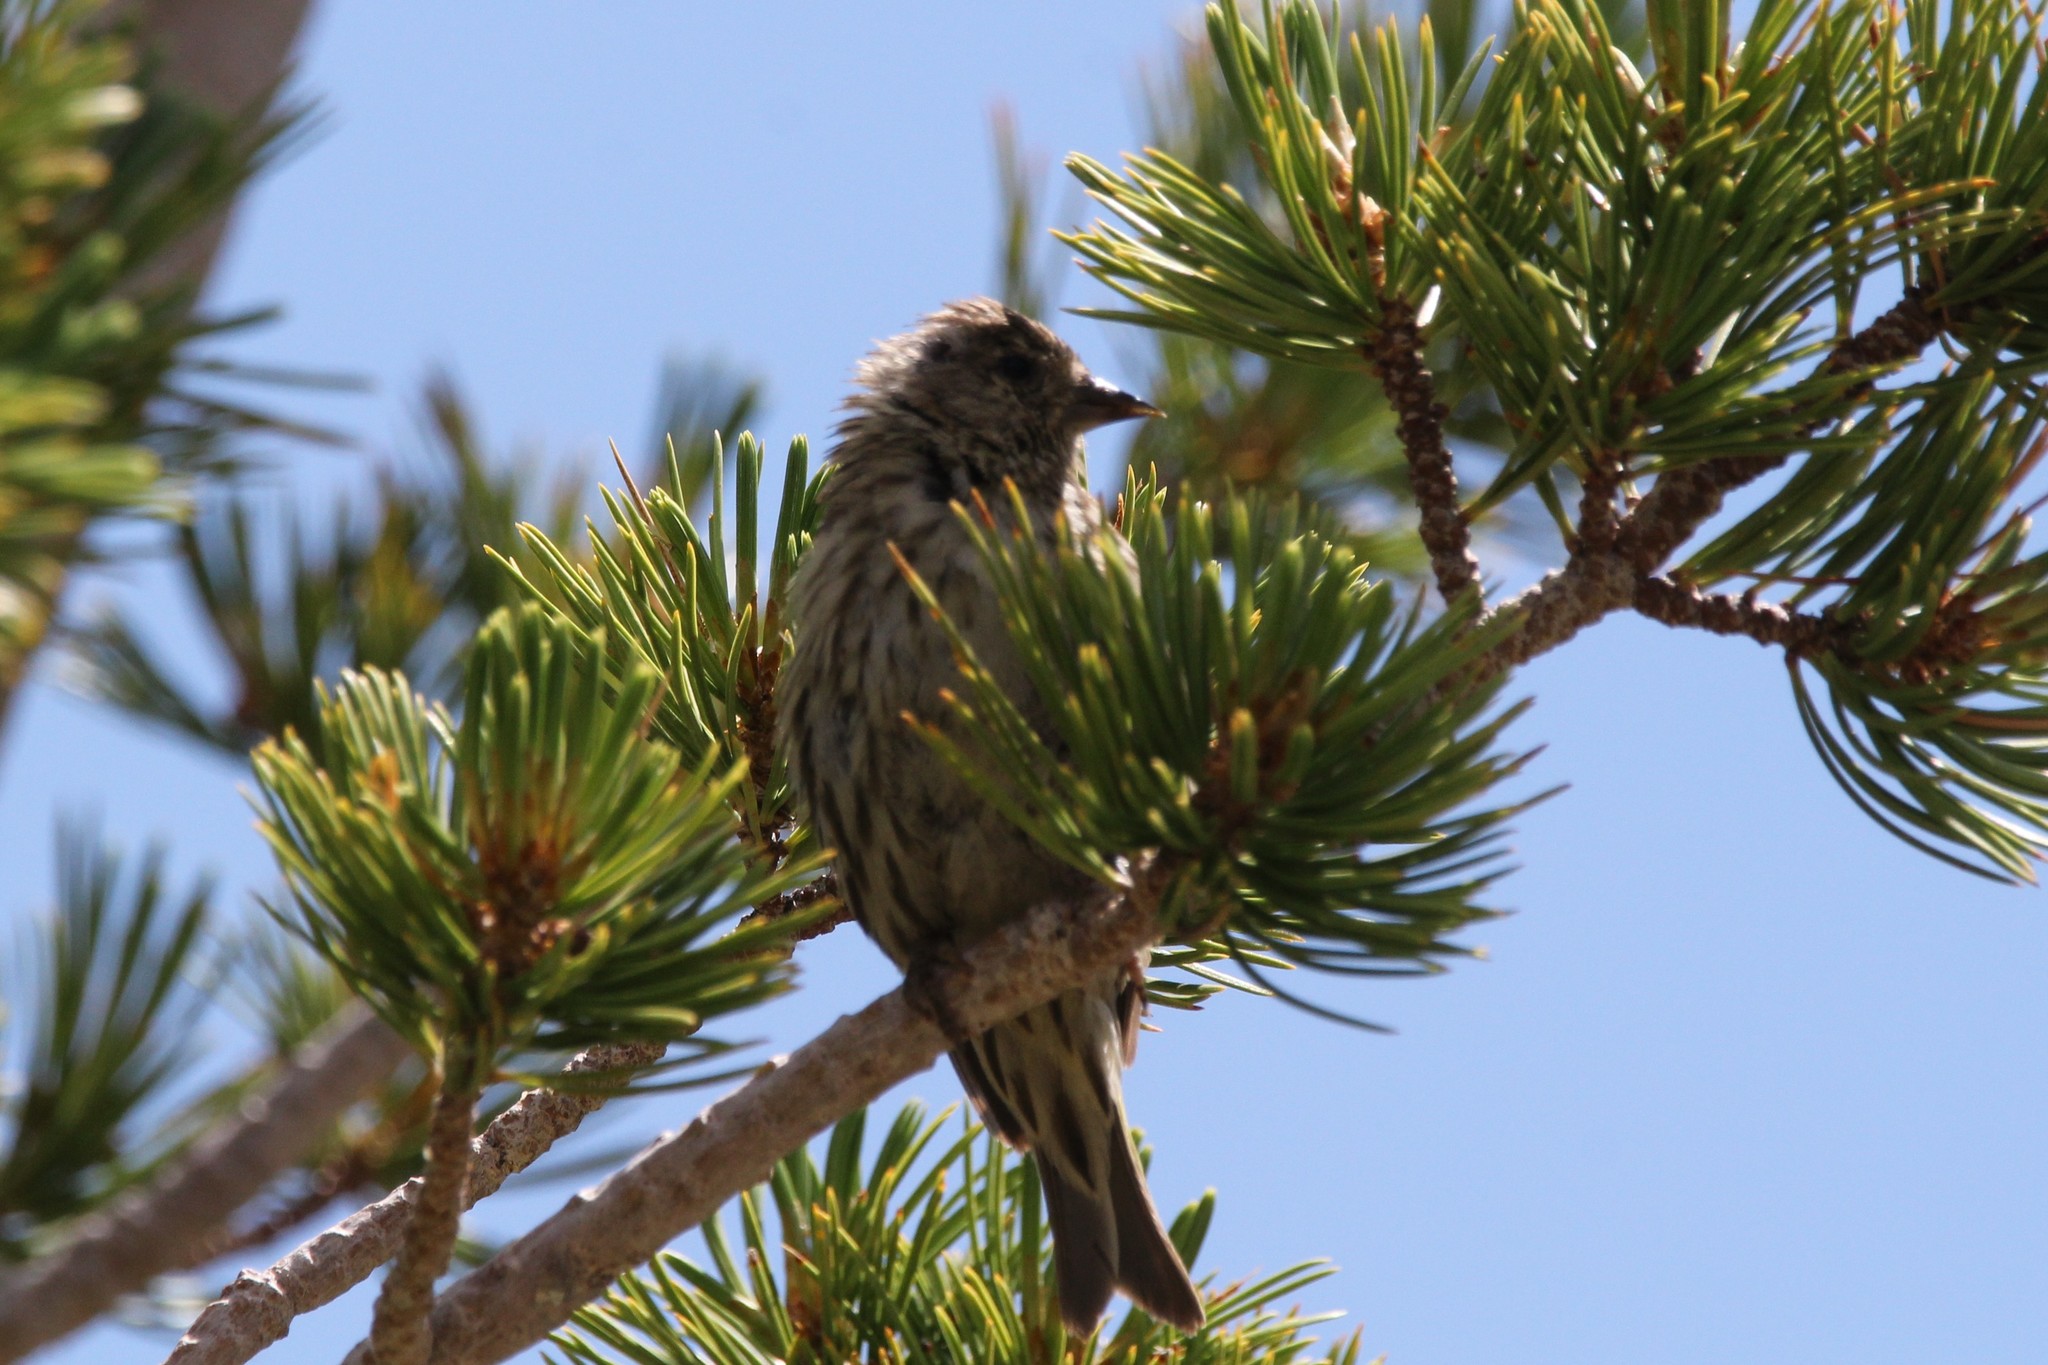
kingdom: Animalia
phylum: Chordata
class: Aves
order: Passeriformes
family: Fringillidae
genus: Spinus
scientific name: Spinus pinus
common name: Pine siskin
